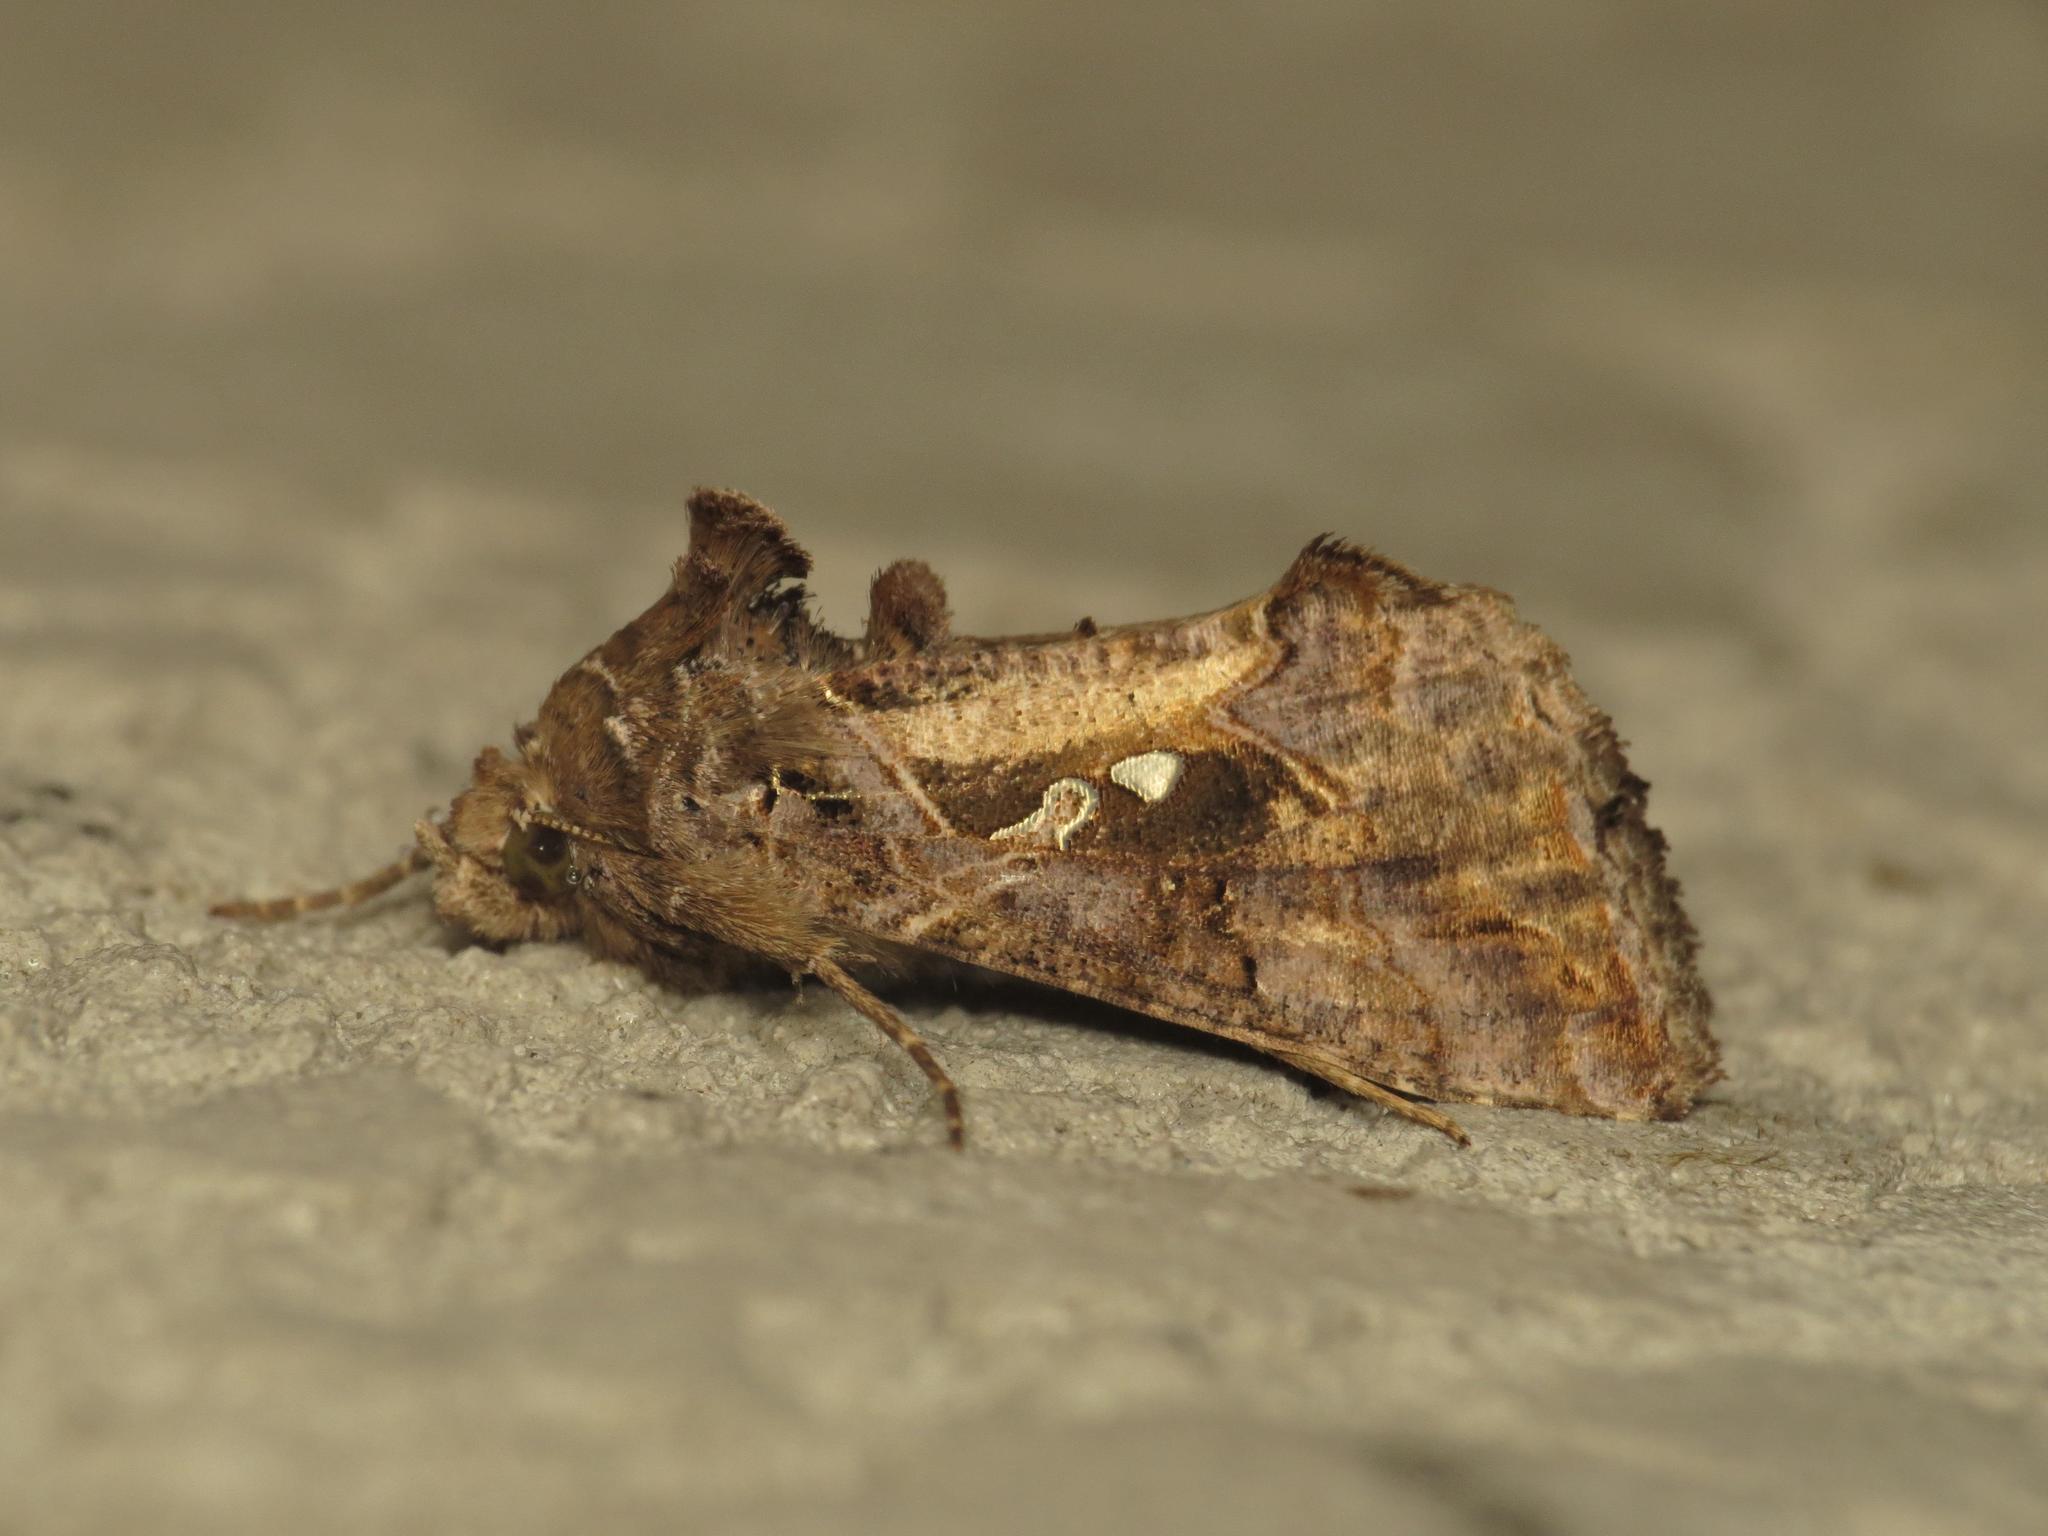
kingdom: Animalia
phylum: Arthropoda
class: Insecta
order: Lepidoptera
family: Noctuidae
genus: Ctenoplusia
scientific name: Ctenoplusia agnata
